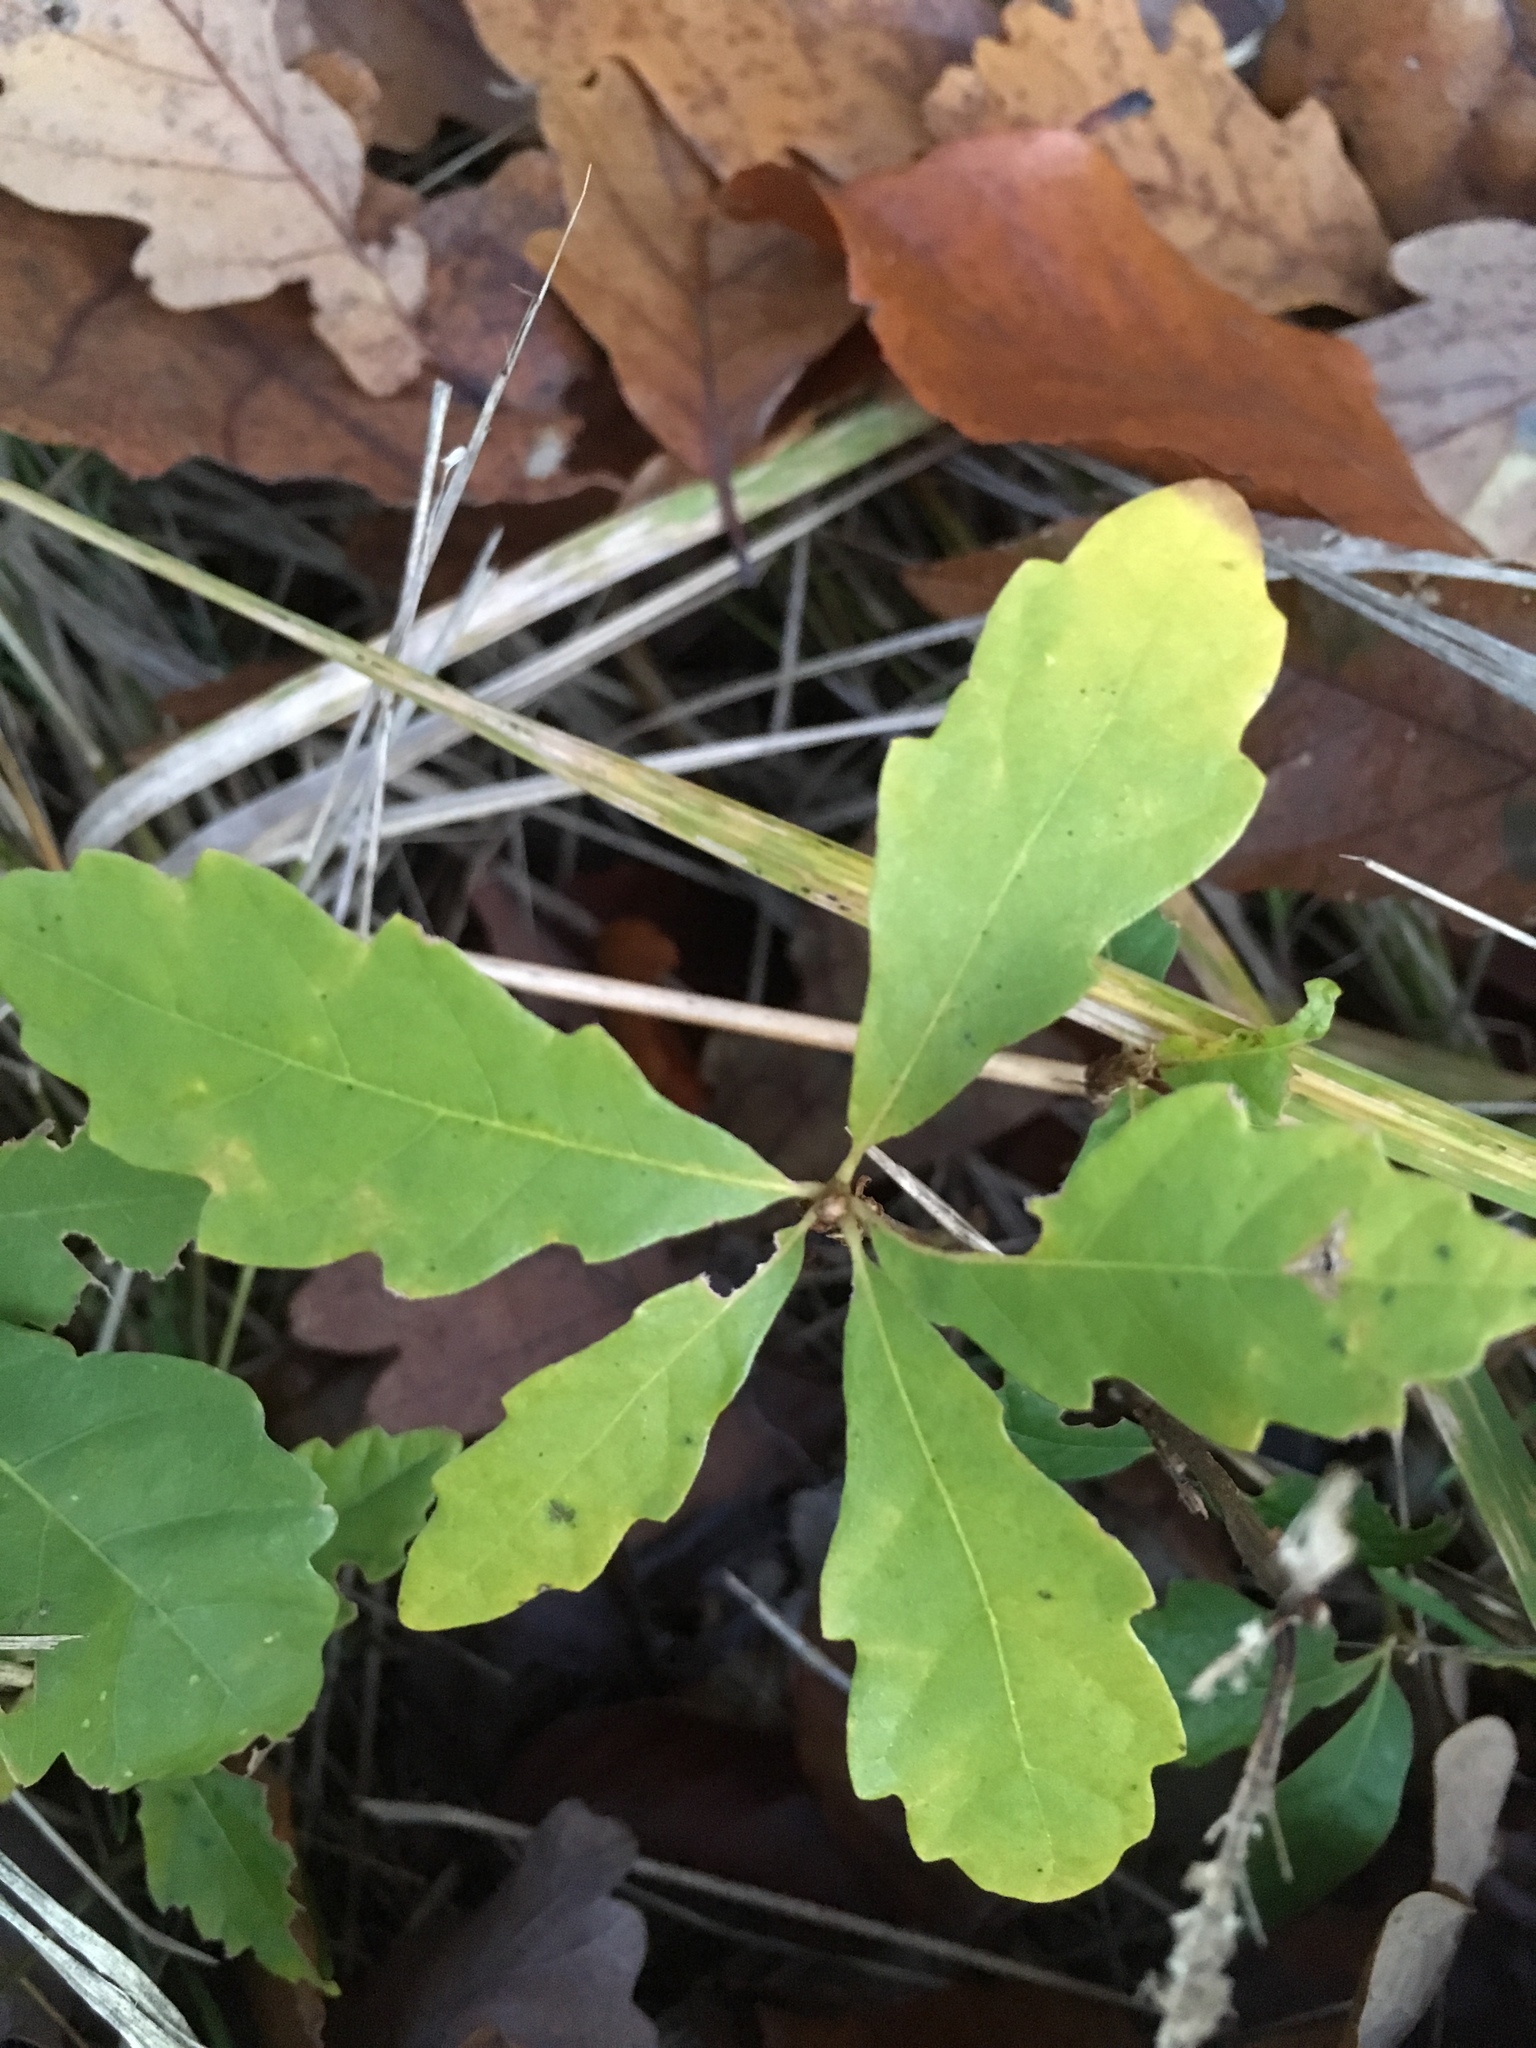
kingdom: Plantae
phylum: Tracheophyta
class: Magnoliopsida
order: Fagales
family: Fagaceae
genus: Quercus
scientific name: Quercus robur
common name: Pedunculate oak
